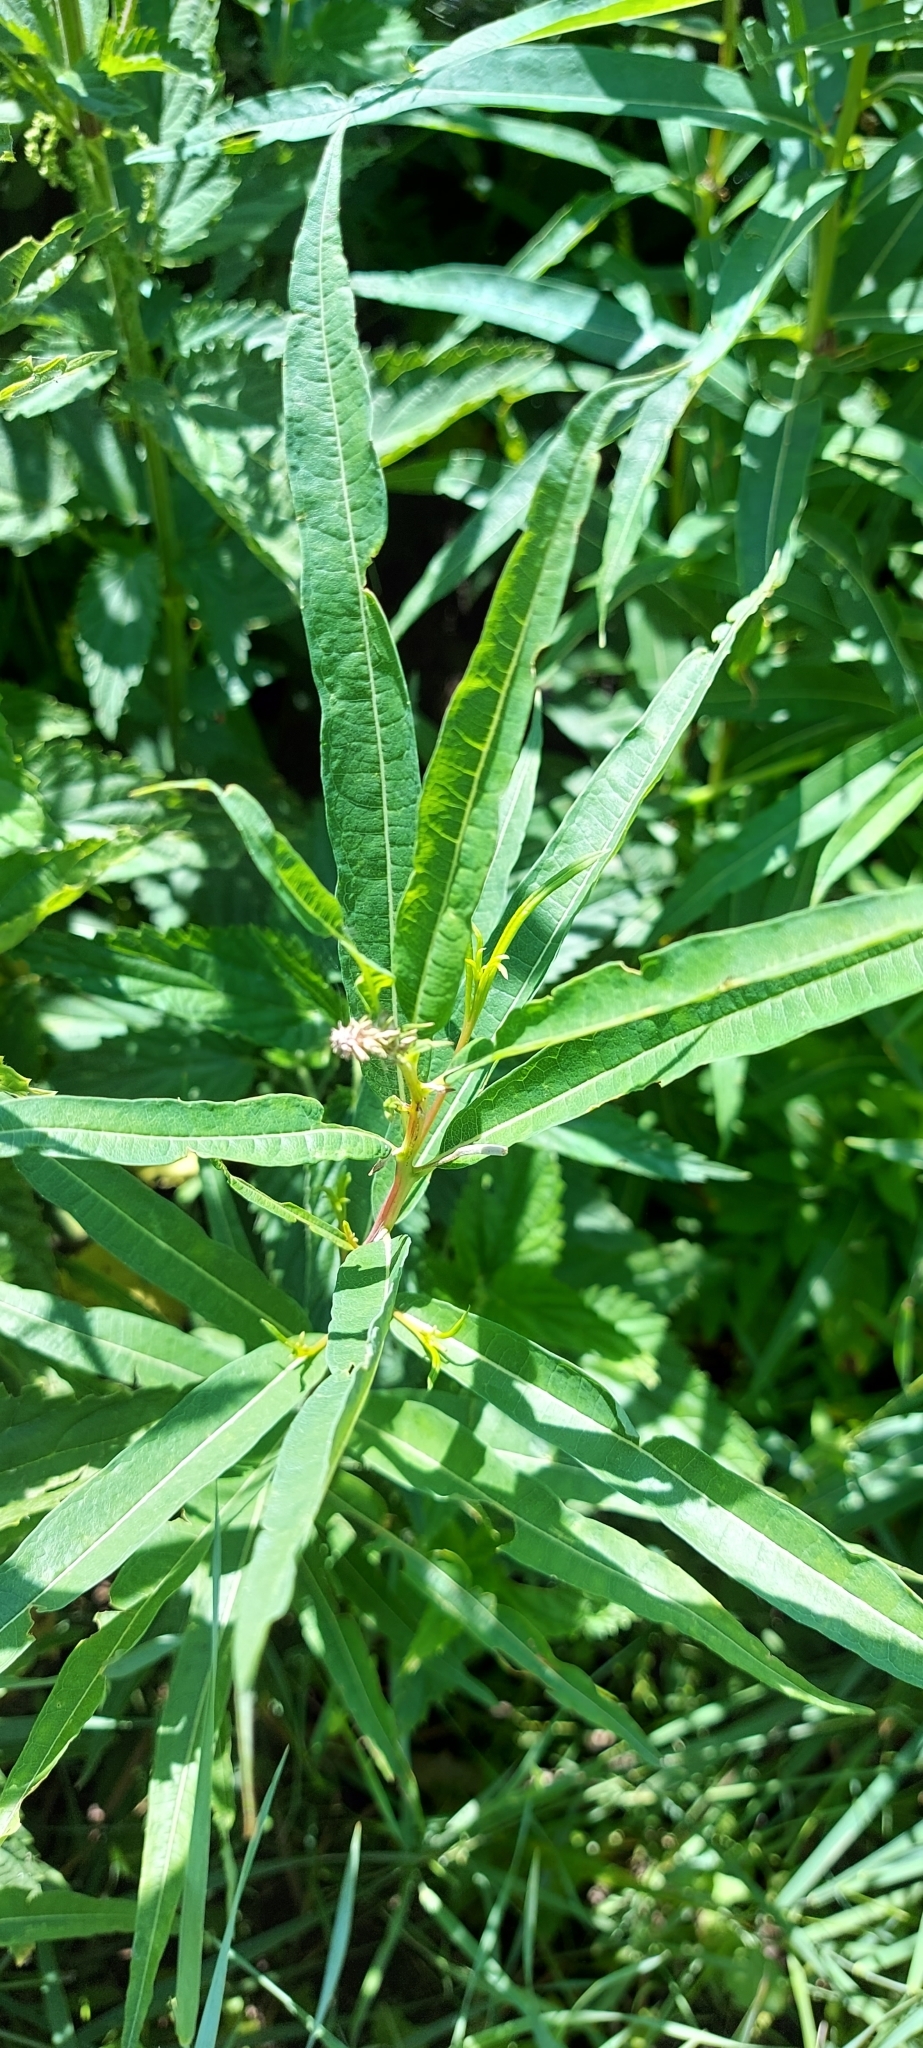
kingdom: Plantae
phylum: Tracheophyta
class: Magnoliopsida
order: Myrtales
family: Onagraceae
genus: Chamaenerion
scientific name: Chamaenerion angustifolium
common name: Fireweed
